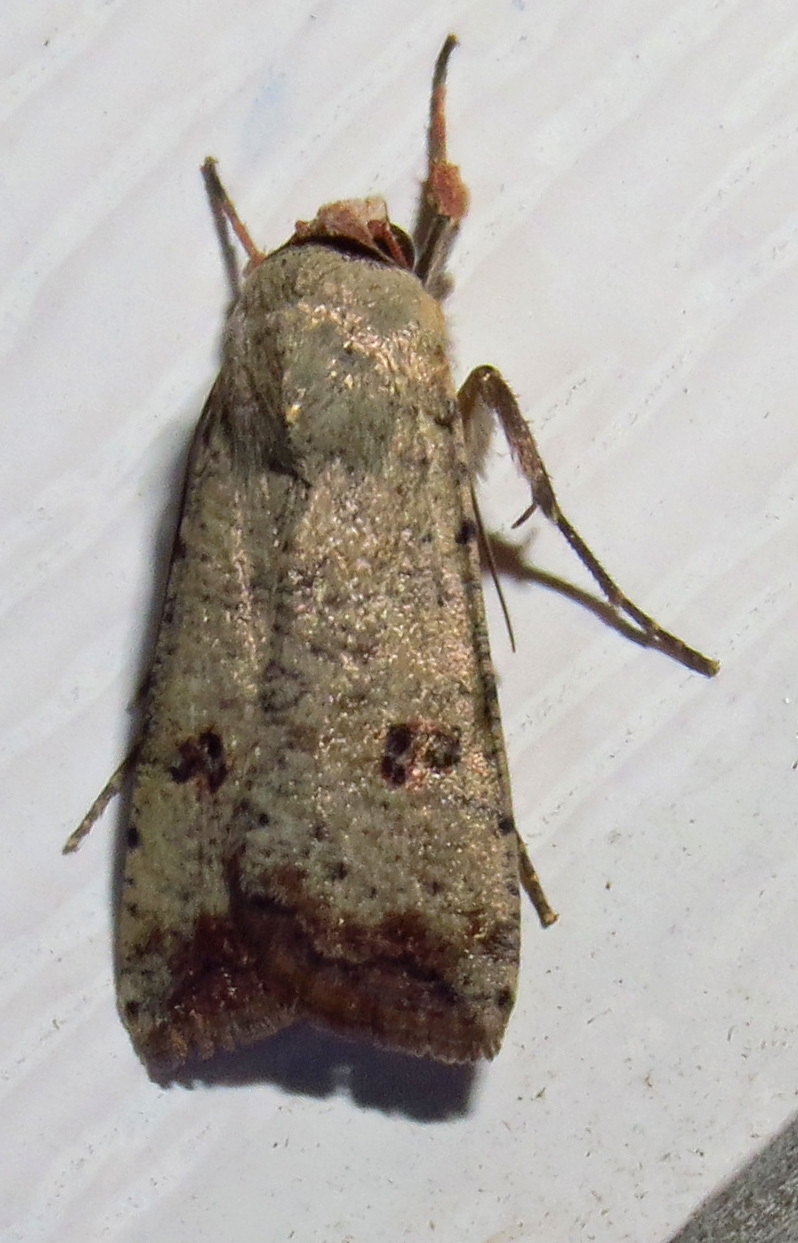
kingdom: Animalia
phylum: Arthropoda
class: Insecta
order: Lepidoptera
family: Noctuidae
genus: Anicla
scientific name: Anicla infecta
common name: Green cutworm
